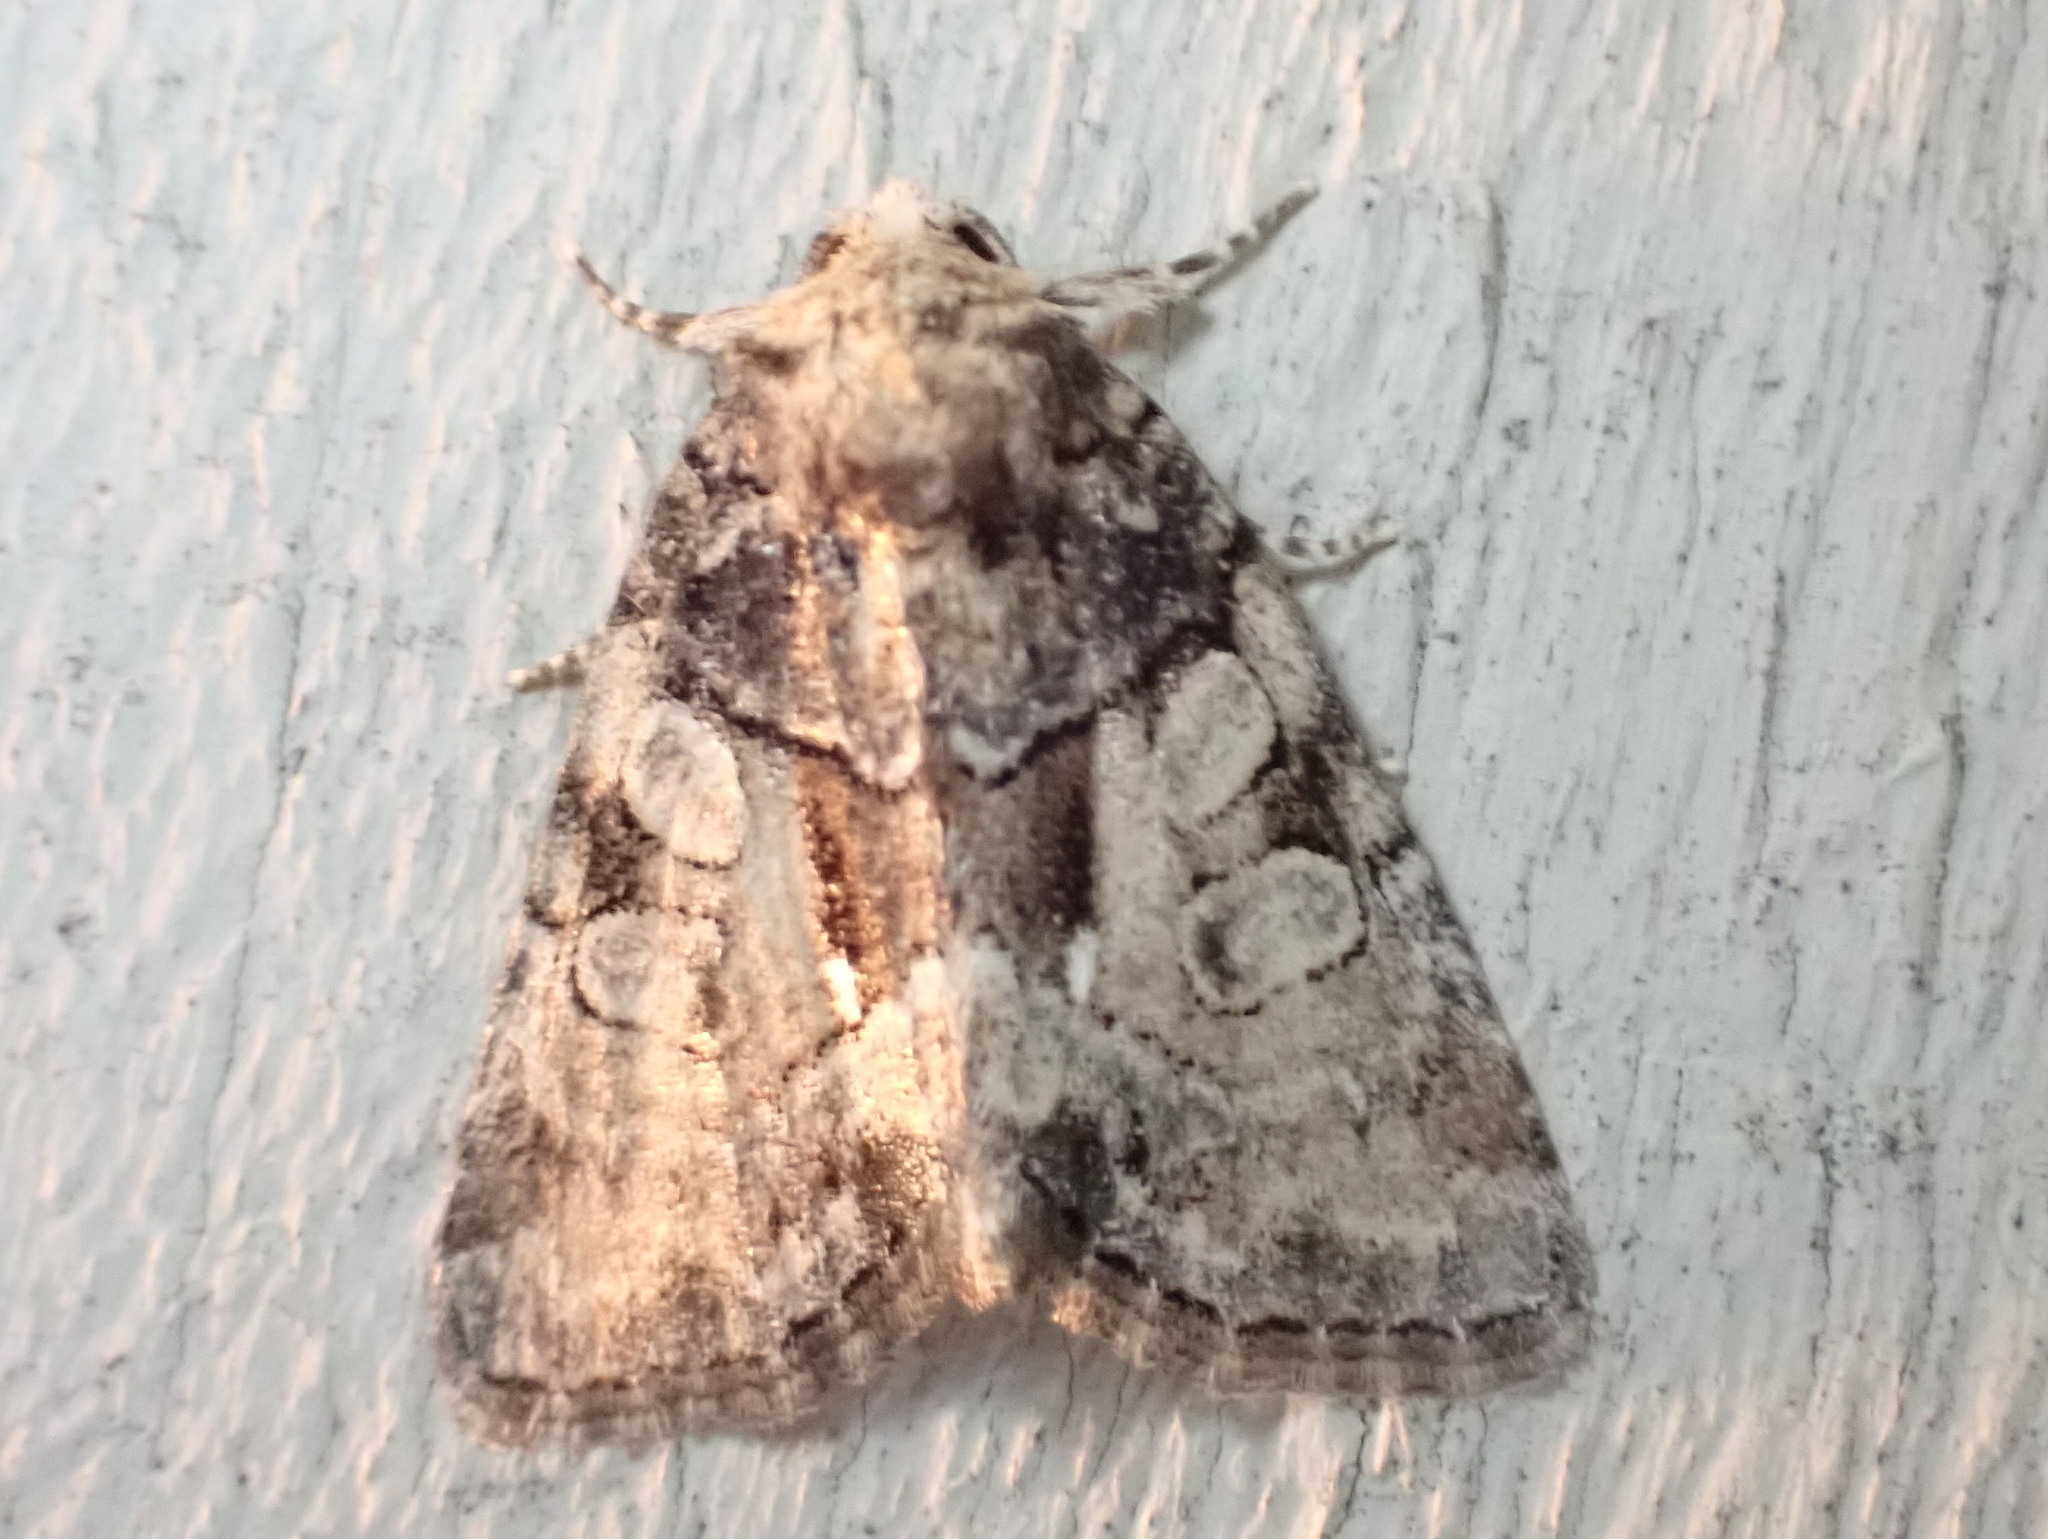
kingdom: Animalia
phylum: Arthropoda
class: Insecta
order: Lepidoptera
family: Noctuidae
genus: Chytonix
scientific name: Chytonix palliatricula
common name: Cloaked marvel
